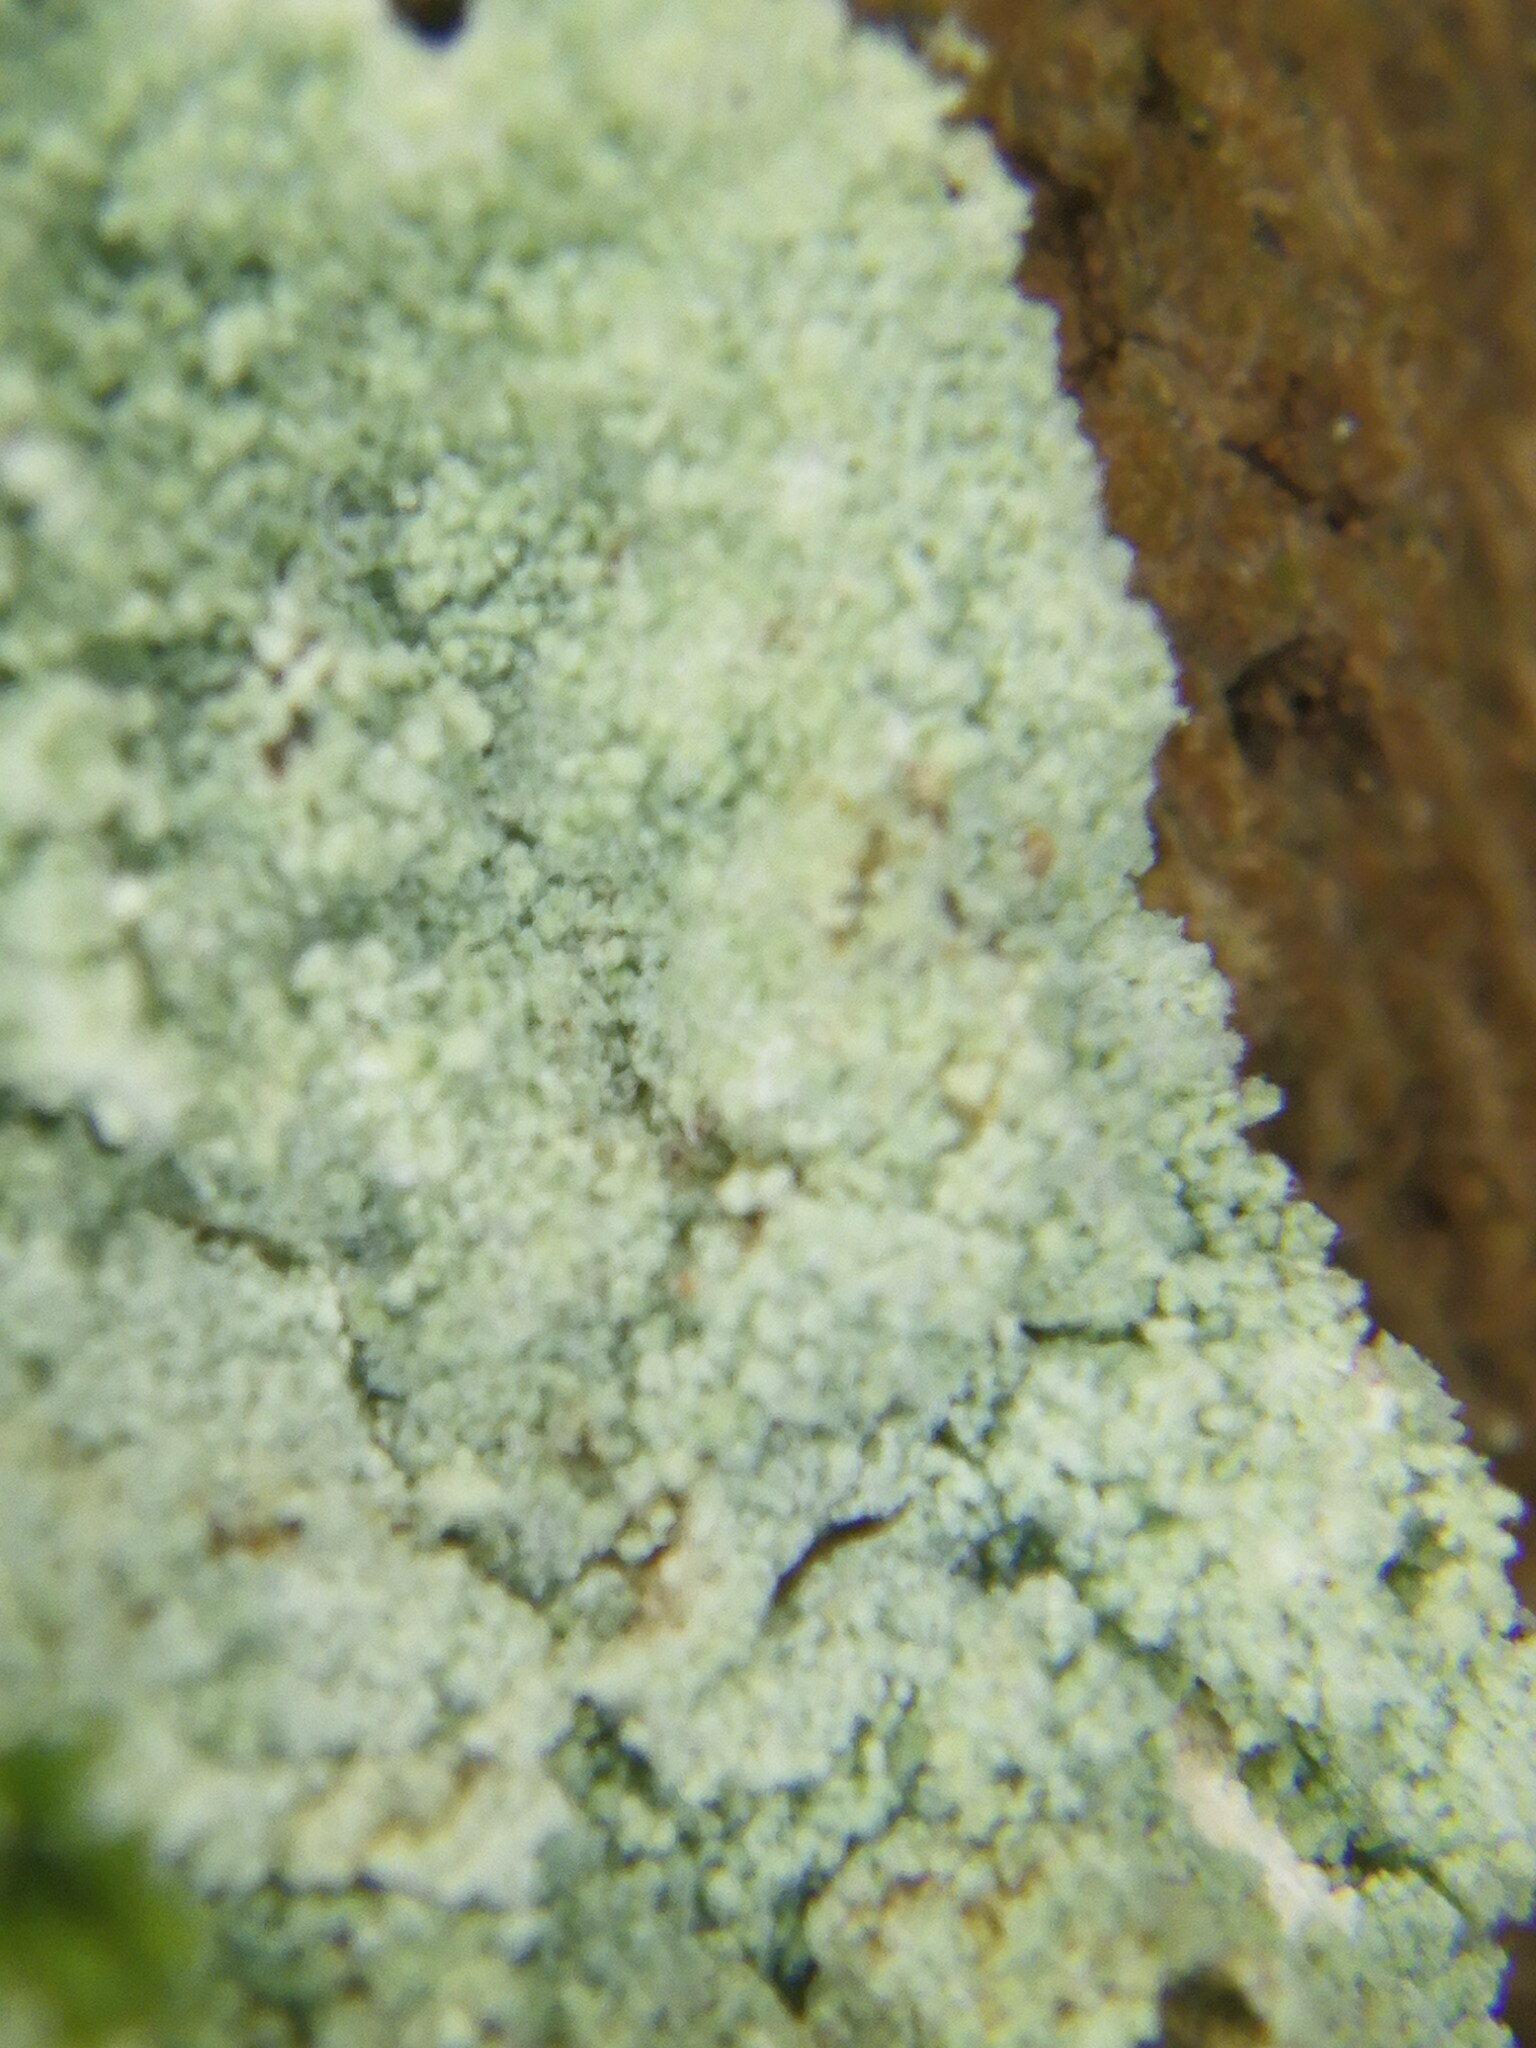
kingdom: Fungi
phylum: Ascomycota
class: Lecanoromycetes
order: Lecanorales
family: Stereocaulaceae
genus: Lepraria
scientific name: Lepraria
